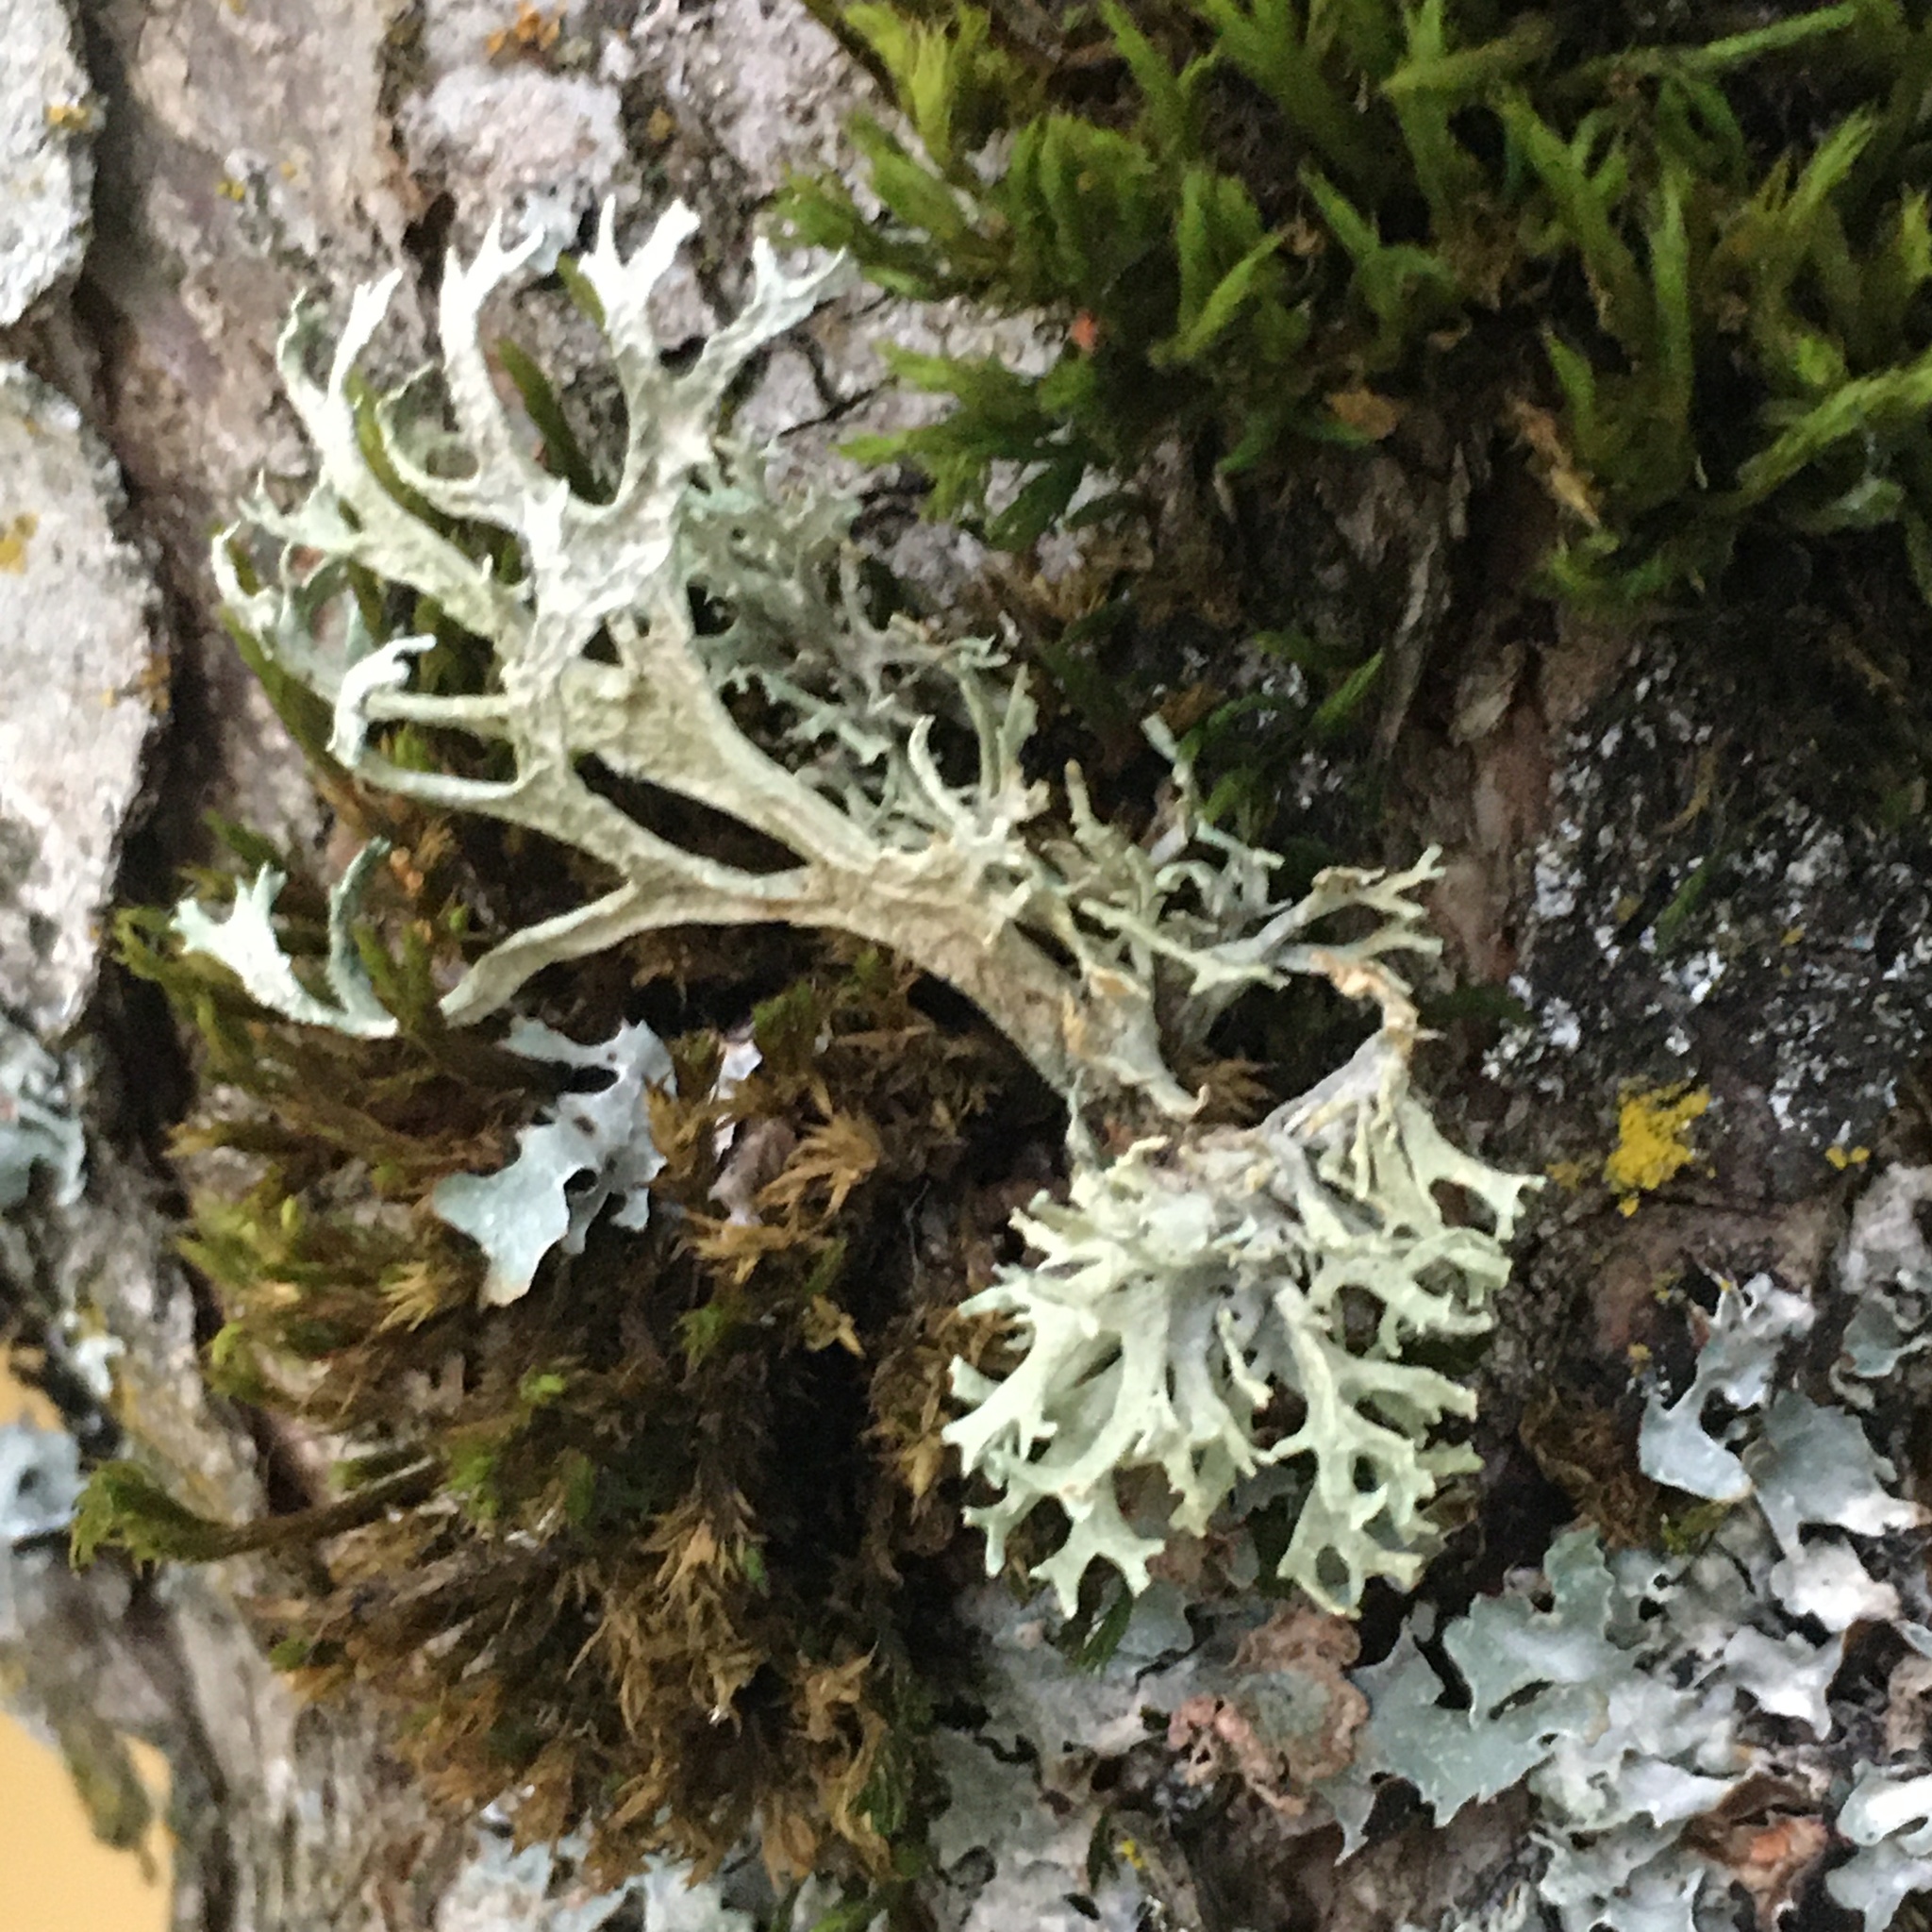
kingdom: Fungi
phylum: Ascomycota
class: Lecanoromycetes
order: Lecanorales
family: Parmeliaceae
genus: Evernia
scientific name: Evernia prunastri
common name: Oak moss
